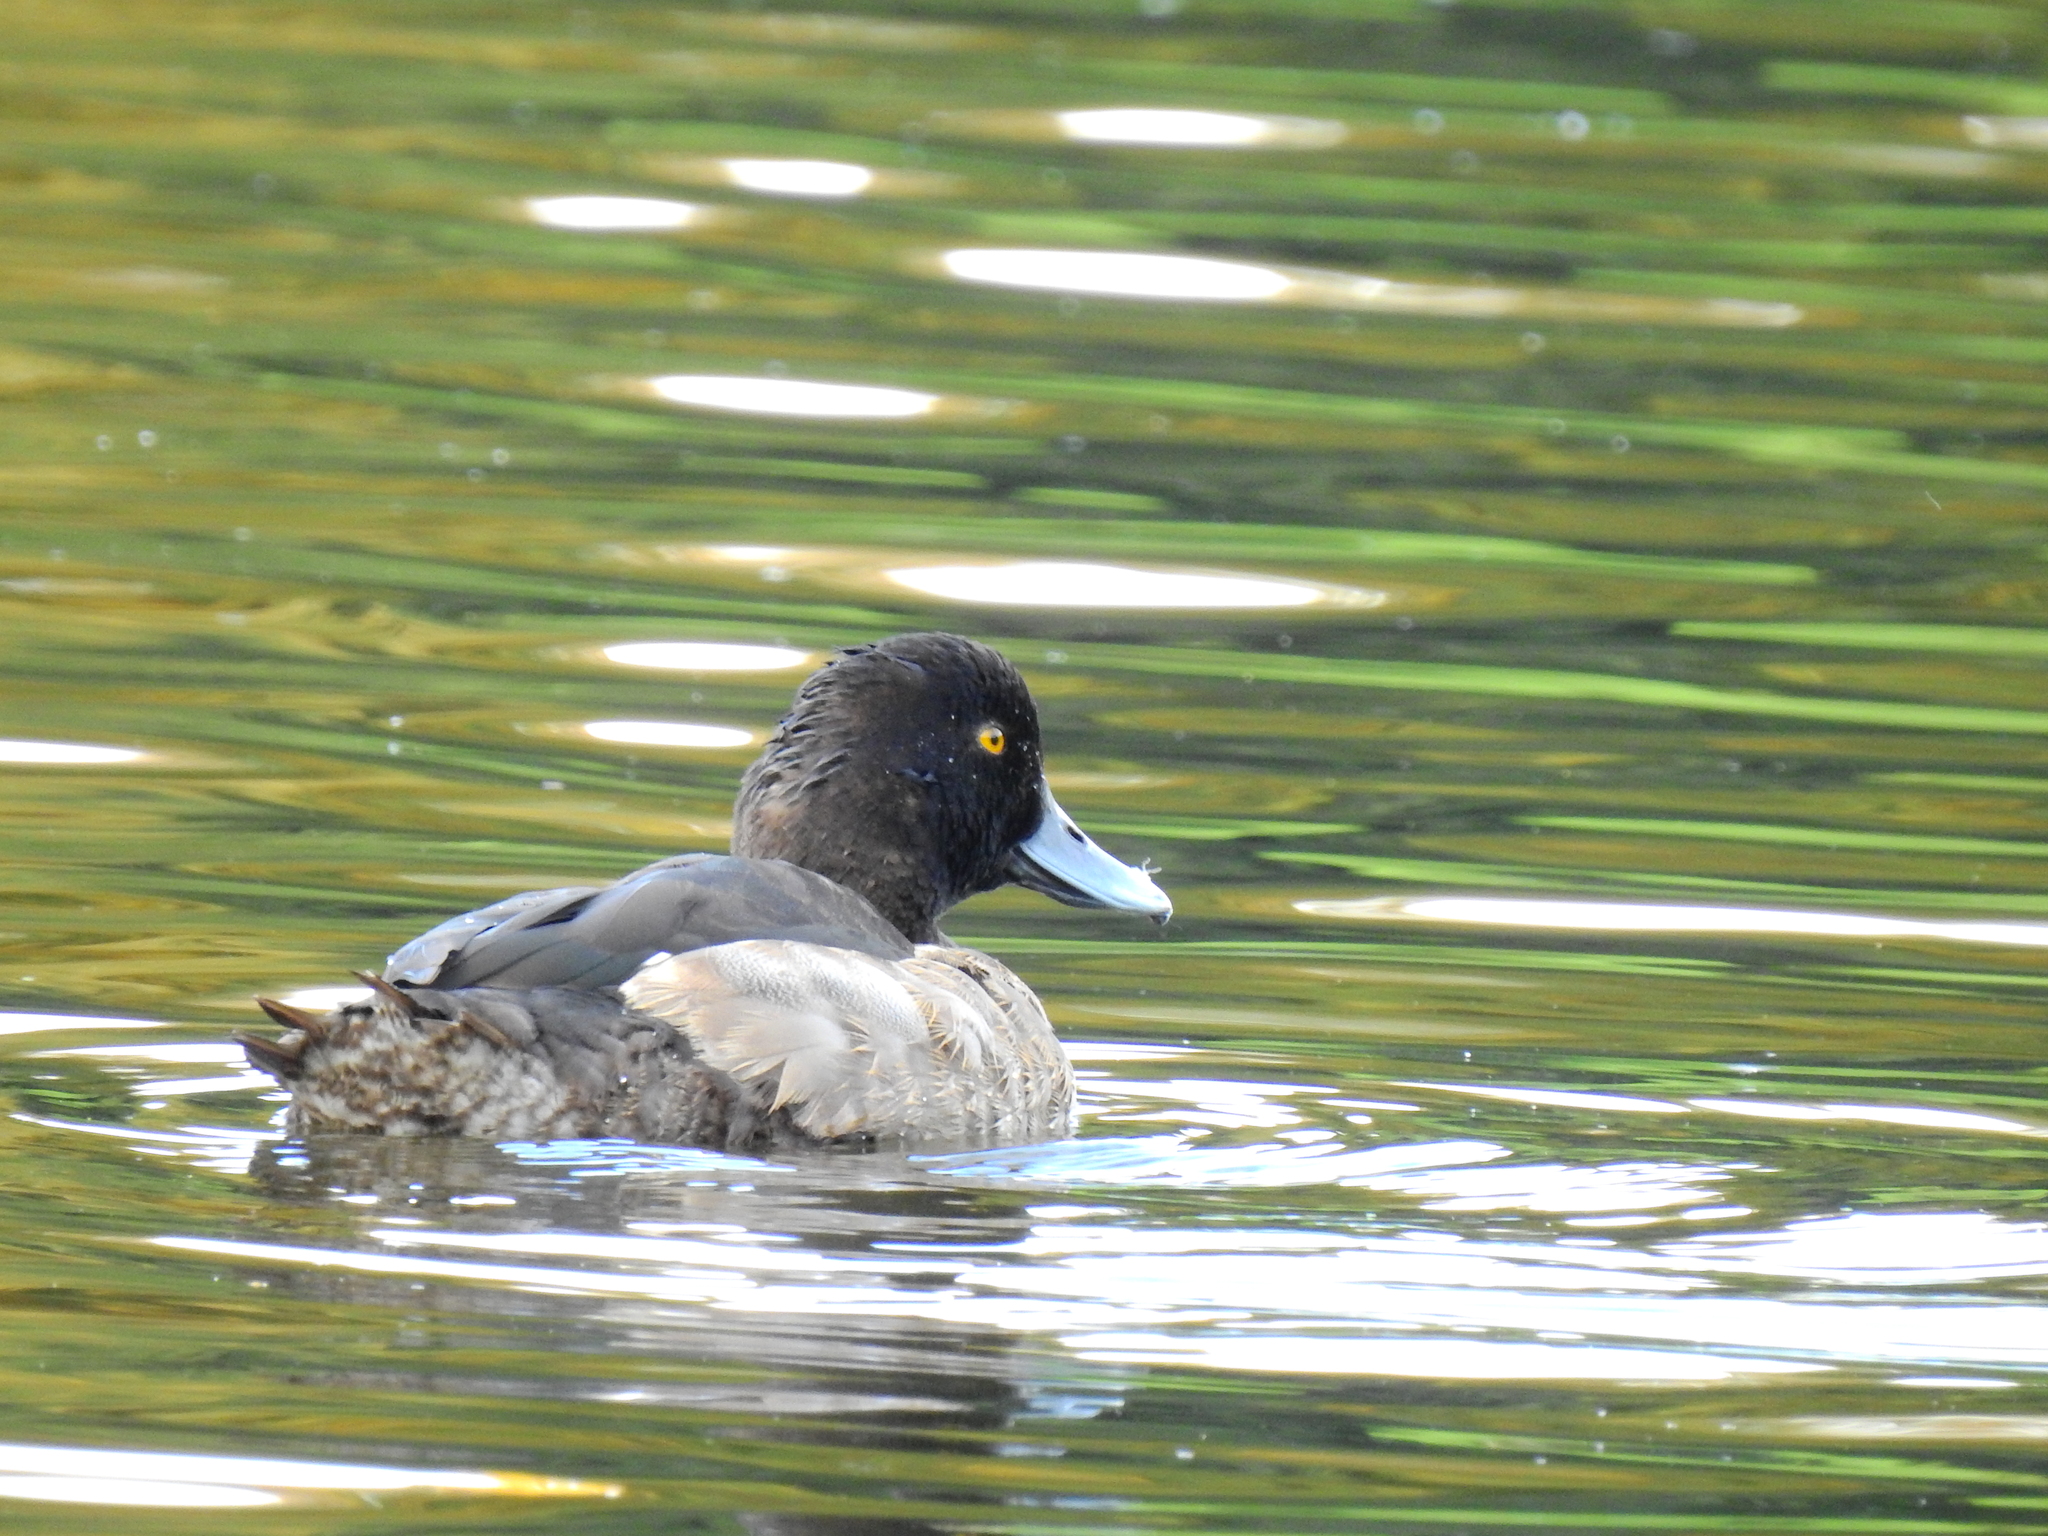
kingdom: Animalia
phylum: Chordata
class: Aves
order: Anseriformes
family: Anatidae
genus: Aythya
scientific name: Aythya fuligula
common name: Tufted duck
